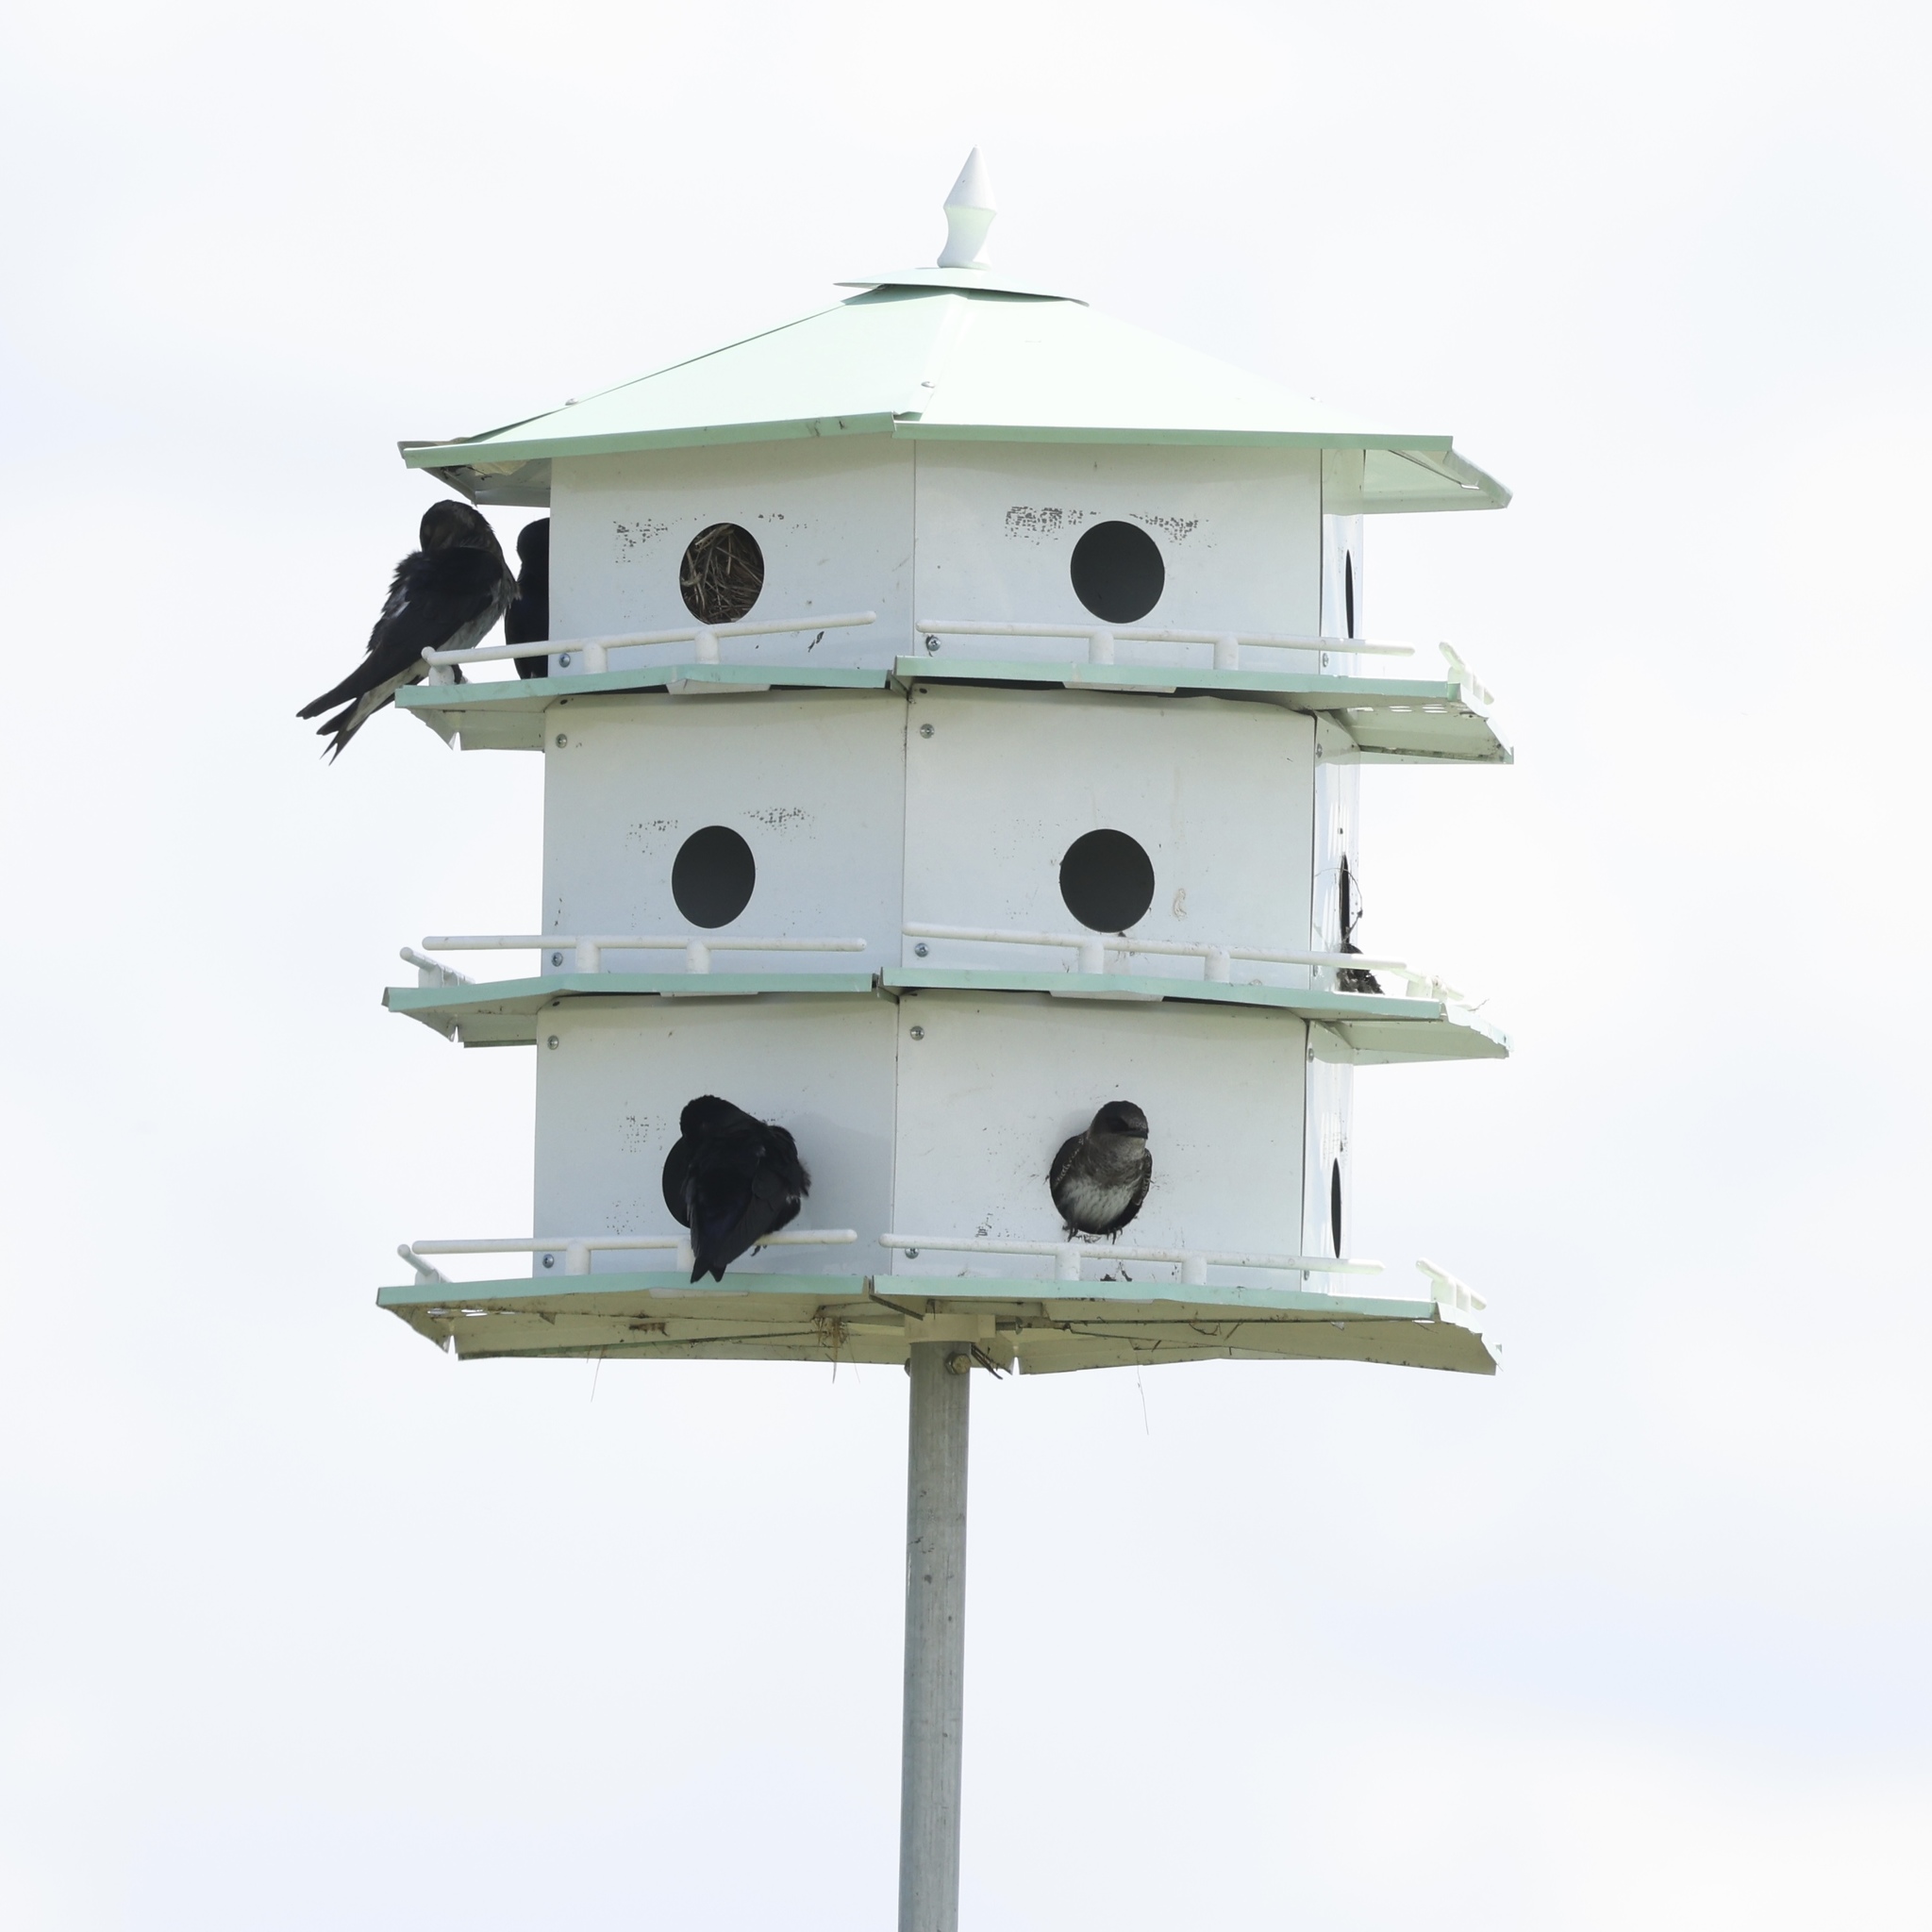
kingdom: Animalia
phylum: Chordata
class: Aves
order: Passeriformes
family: Hirundinidae
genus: Progne
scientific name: Progne subis
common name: Purple martin
